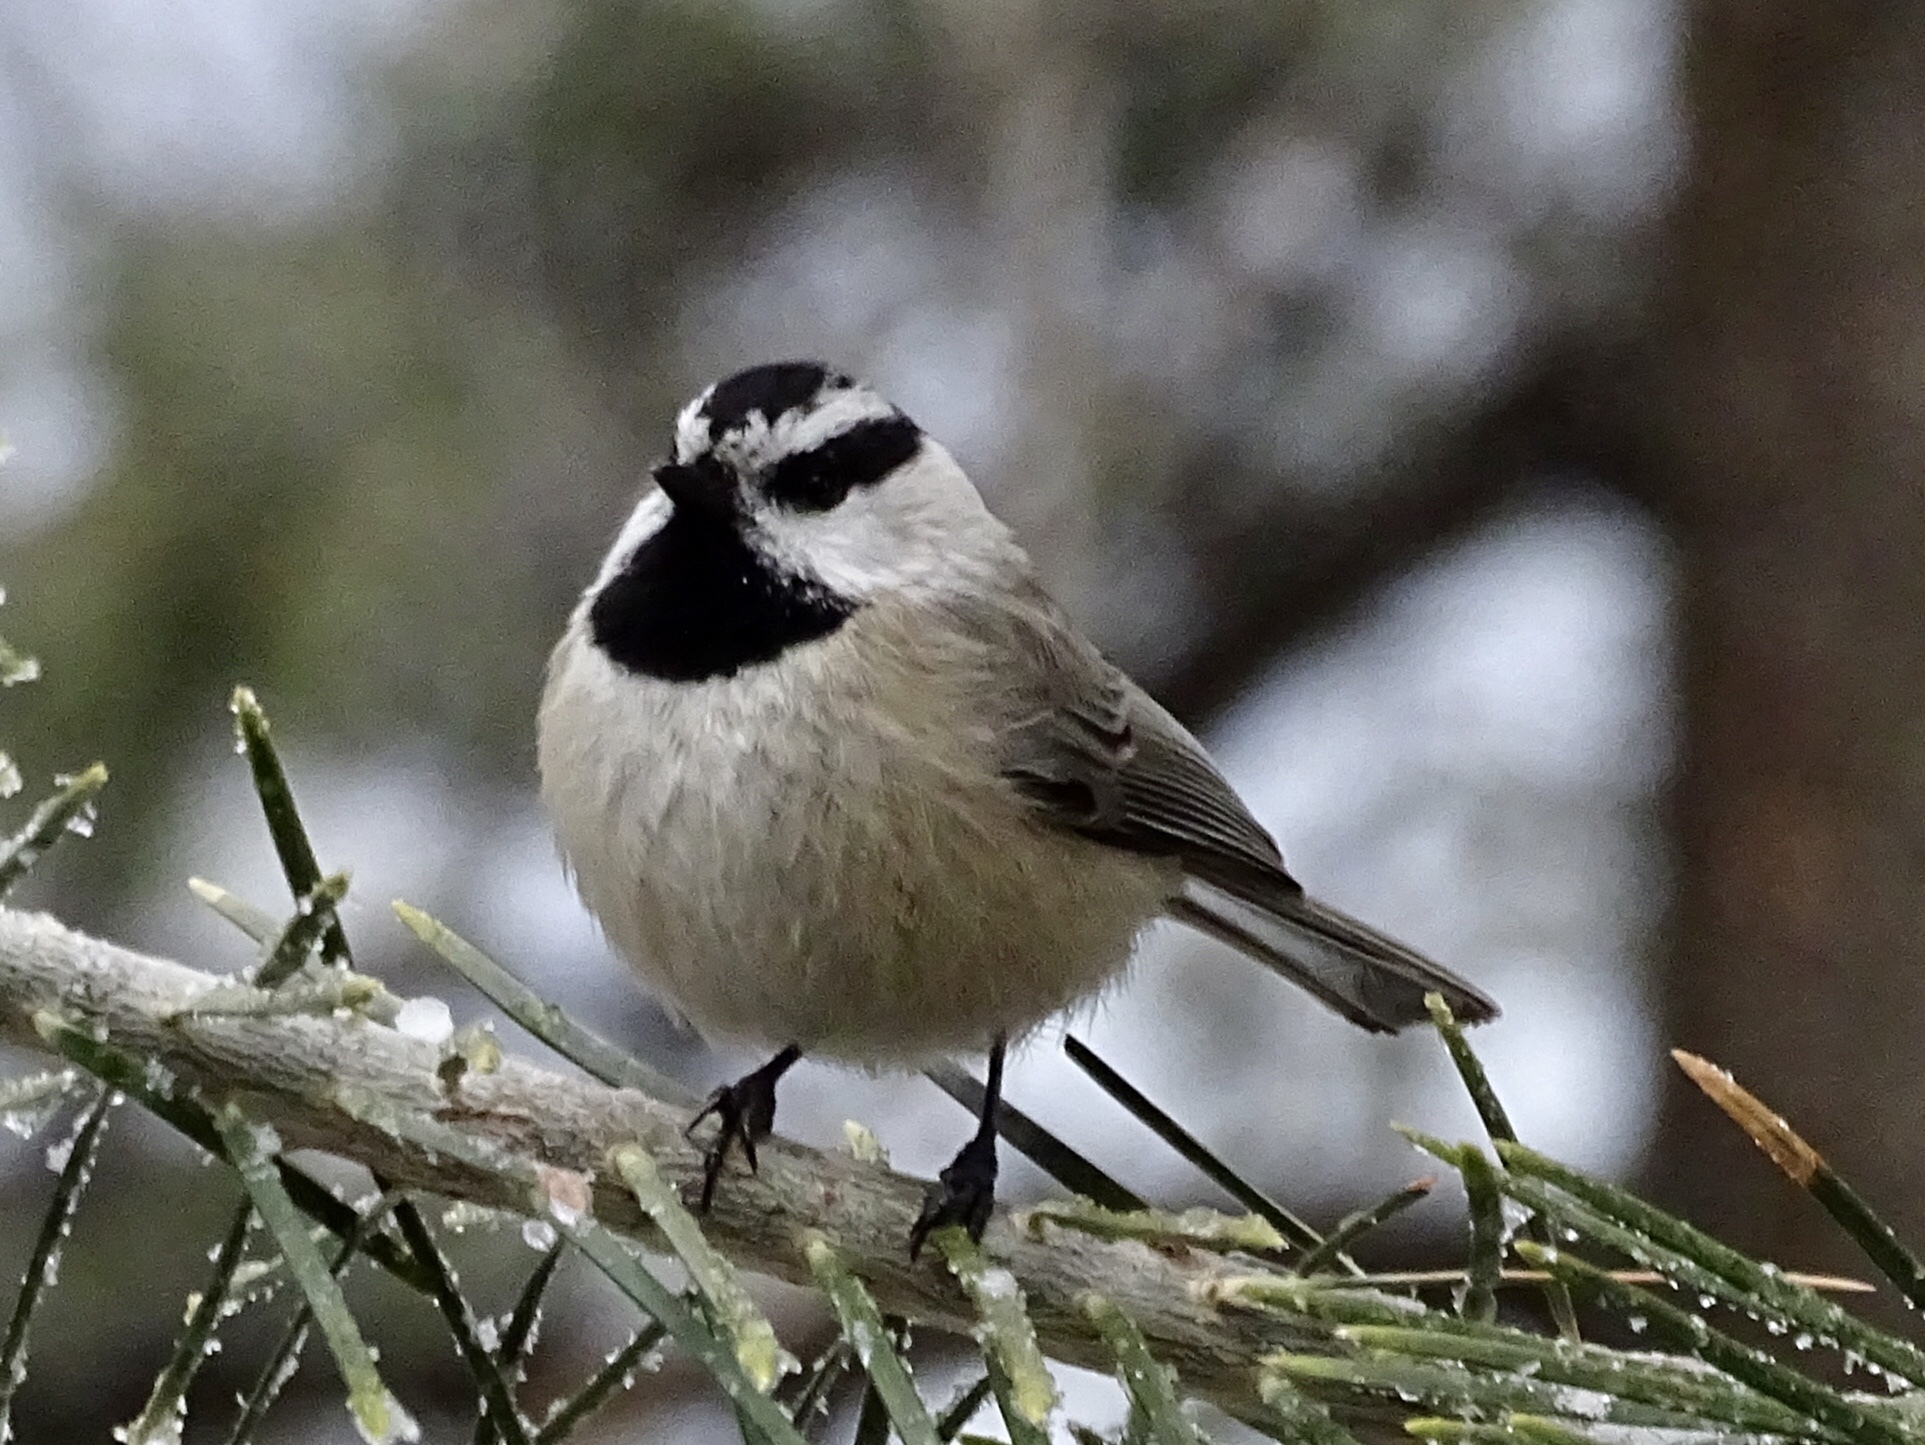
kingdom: Animalia
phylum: Chordata
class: Aves
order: Passeriformes
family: Paridae
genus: Poecile
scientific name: Poecile gambeli
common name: Mountain chickadee
